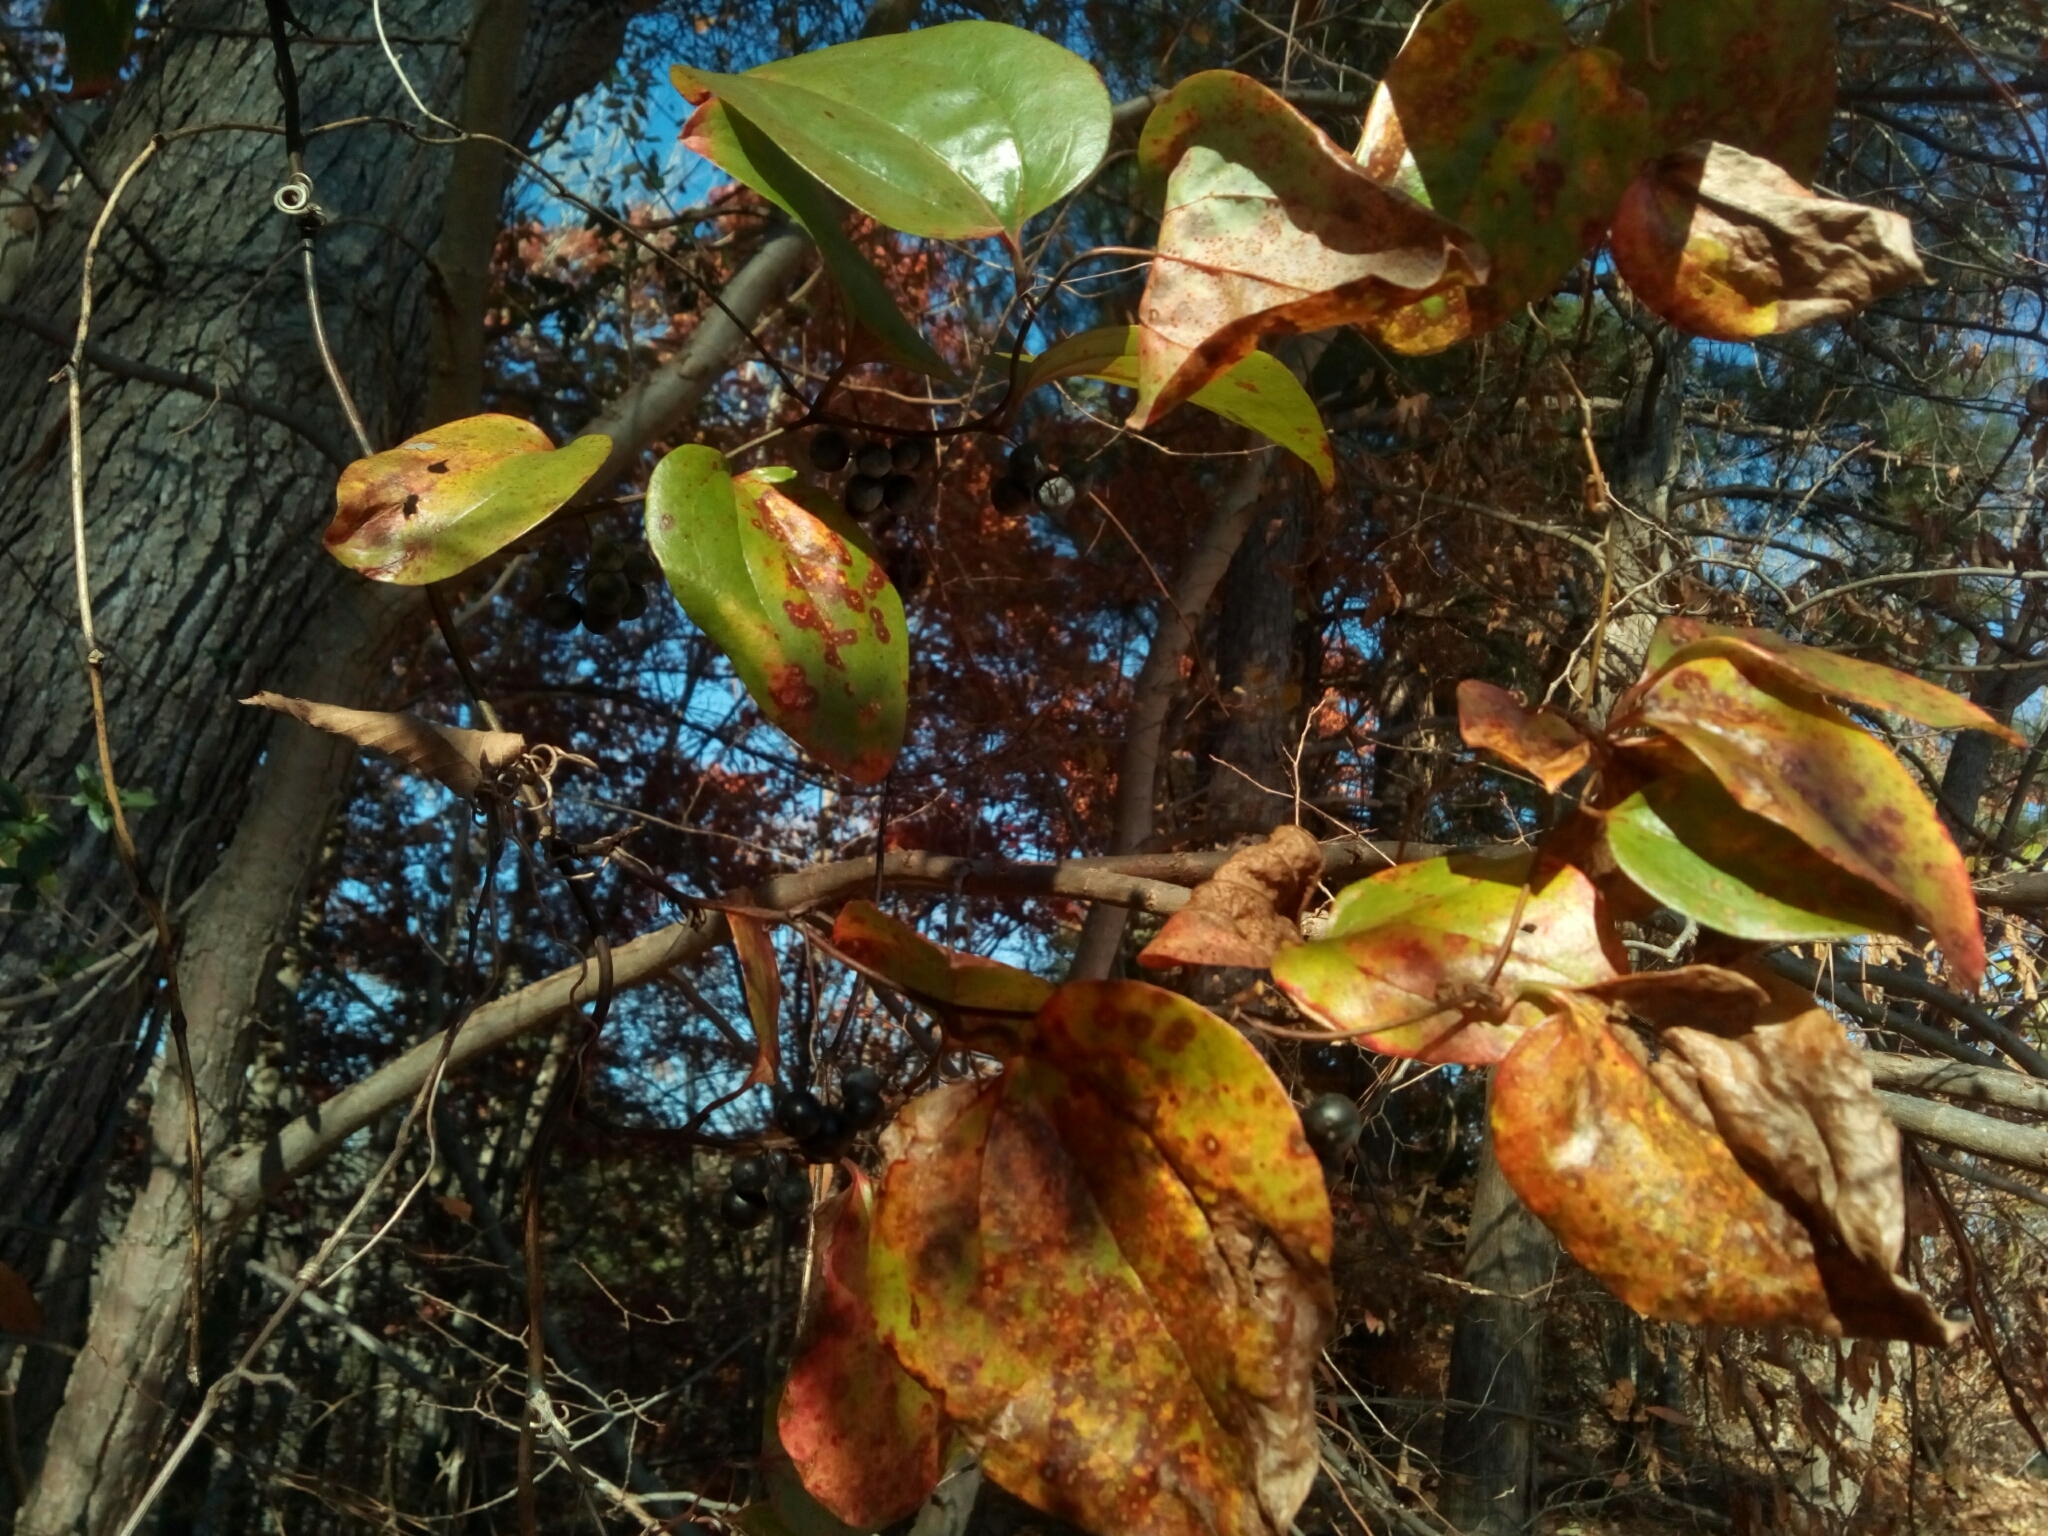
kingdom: Plantae
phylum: Tracheophyta
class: Liliopsida
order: Liliales
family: Smilacaceae
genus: Smilax
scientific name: Smilax rotundifolia
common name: Bullbriar
